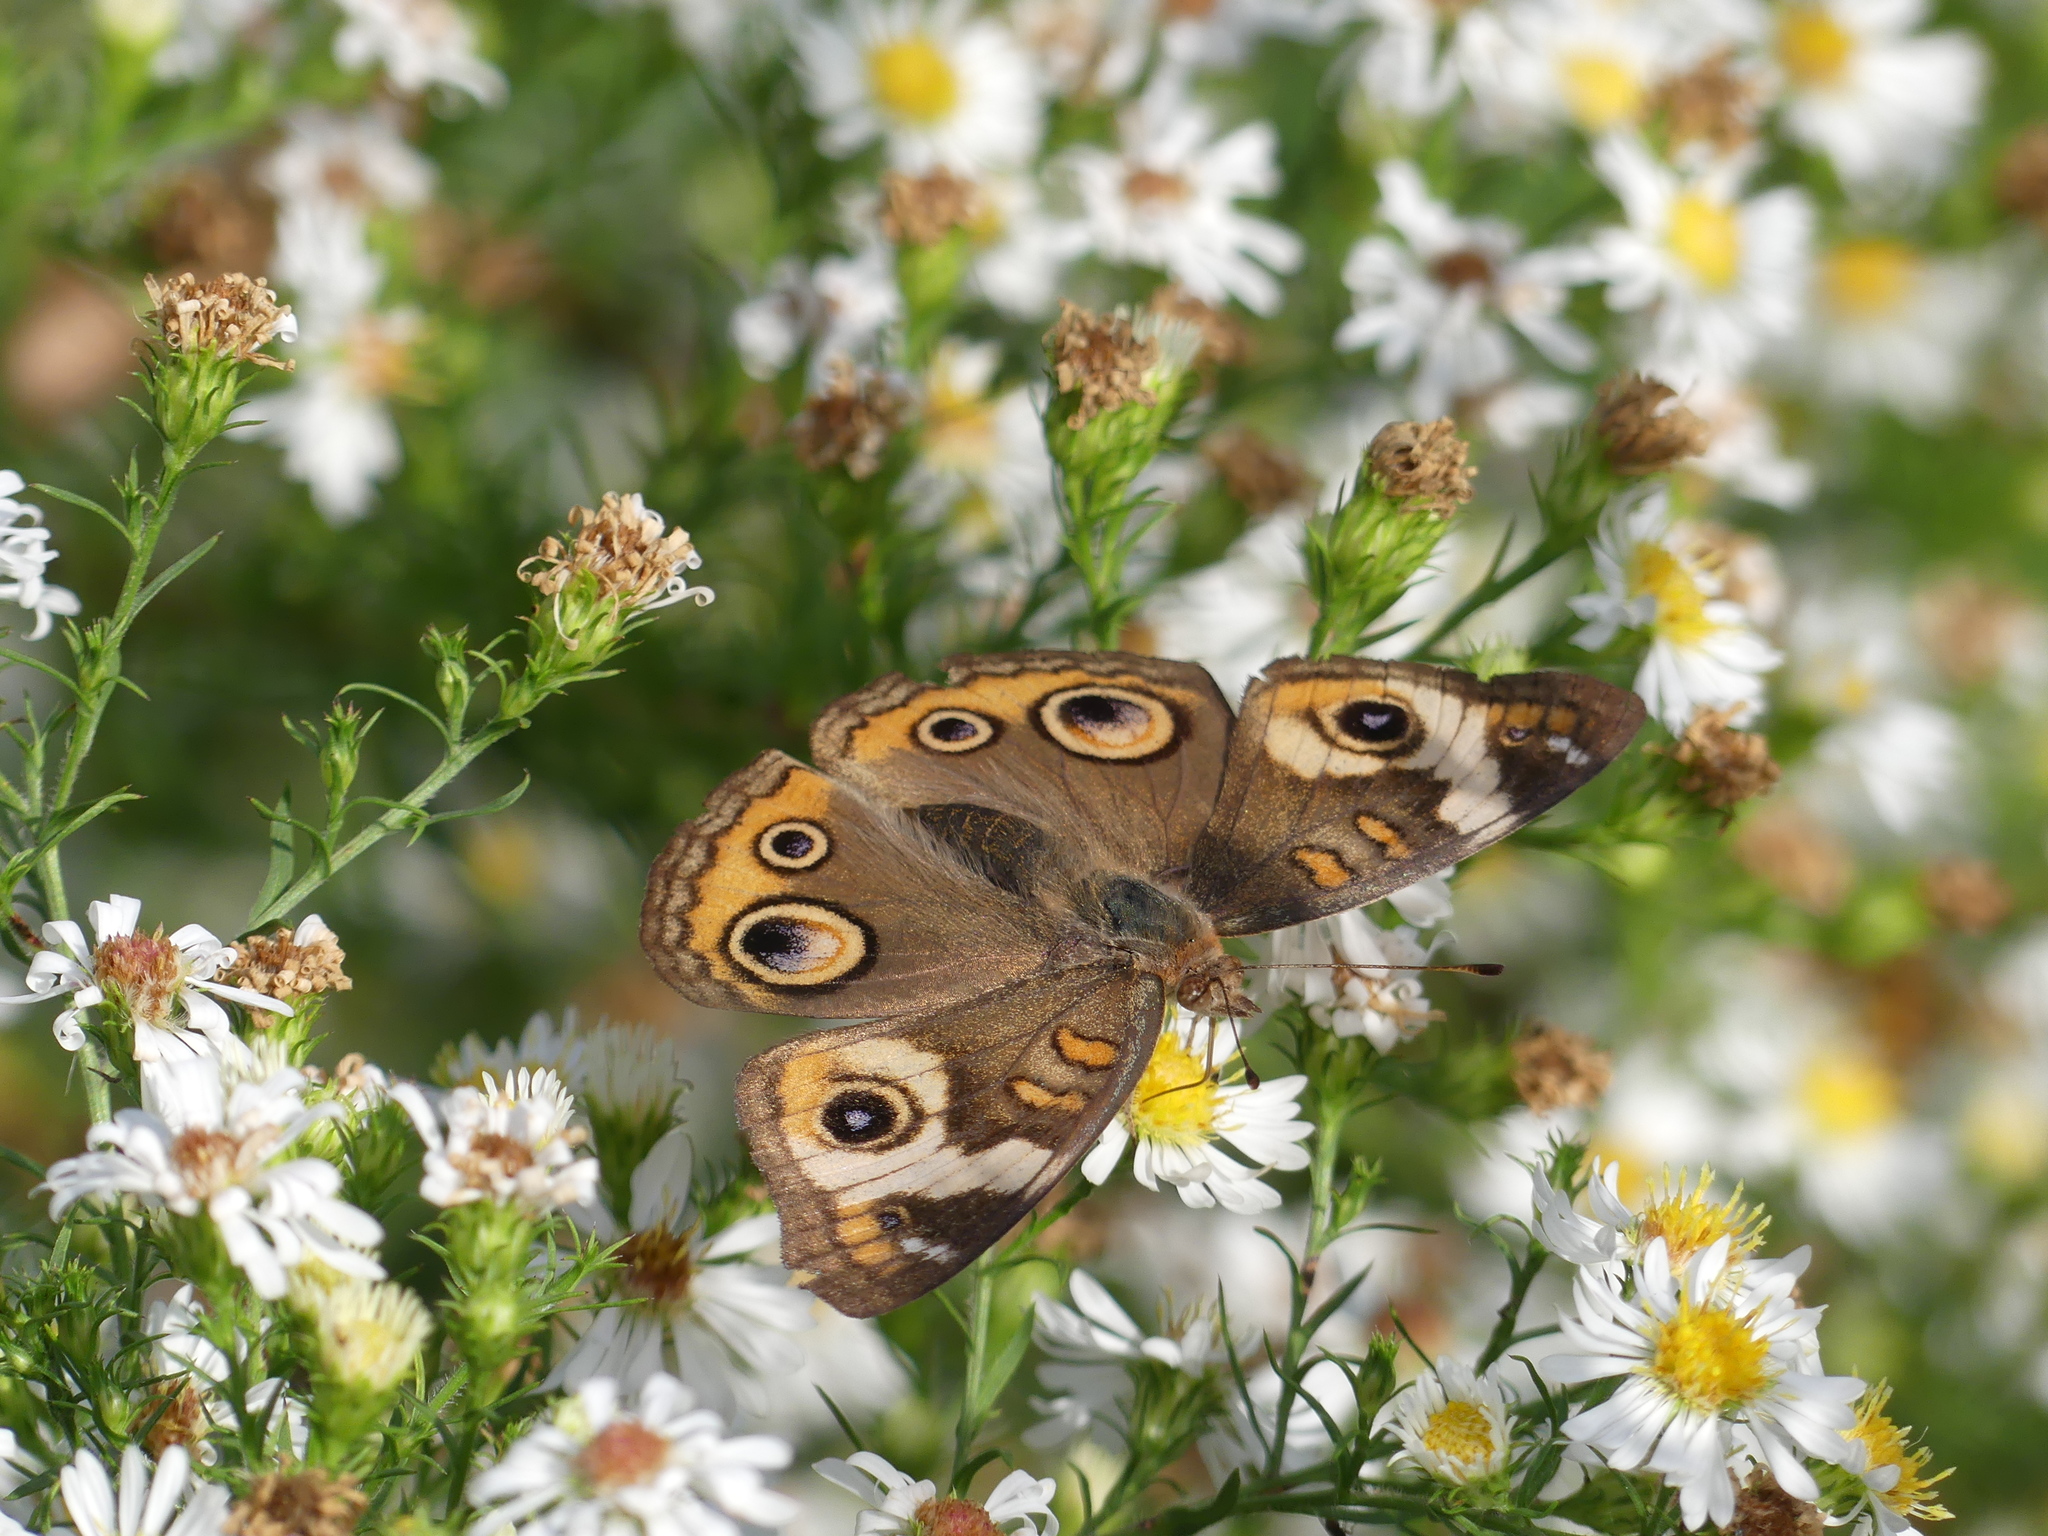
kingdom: Animalia
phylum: Arthropoda
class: Insecta
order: Lepidoptera
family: Nymphalidae
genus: Junonia
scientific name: Junonia coenia
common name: Common buckeye
